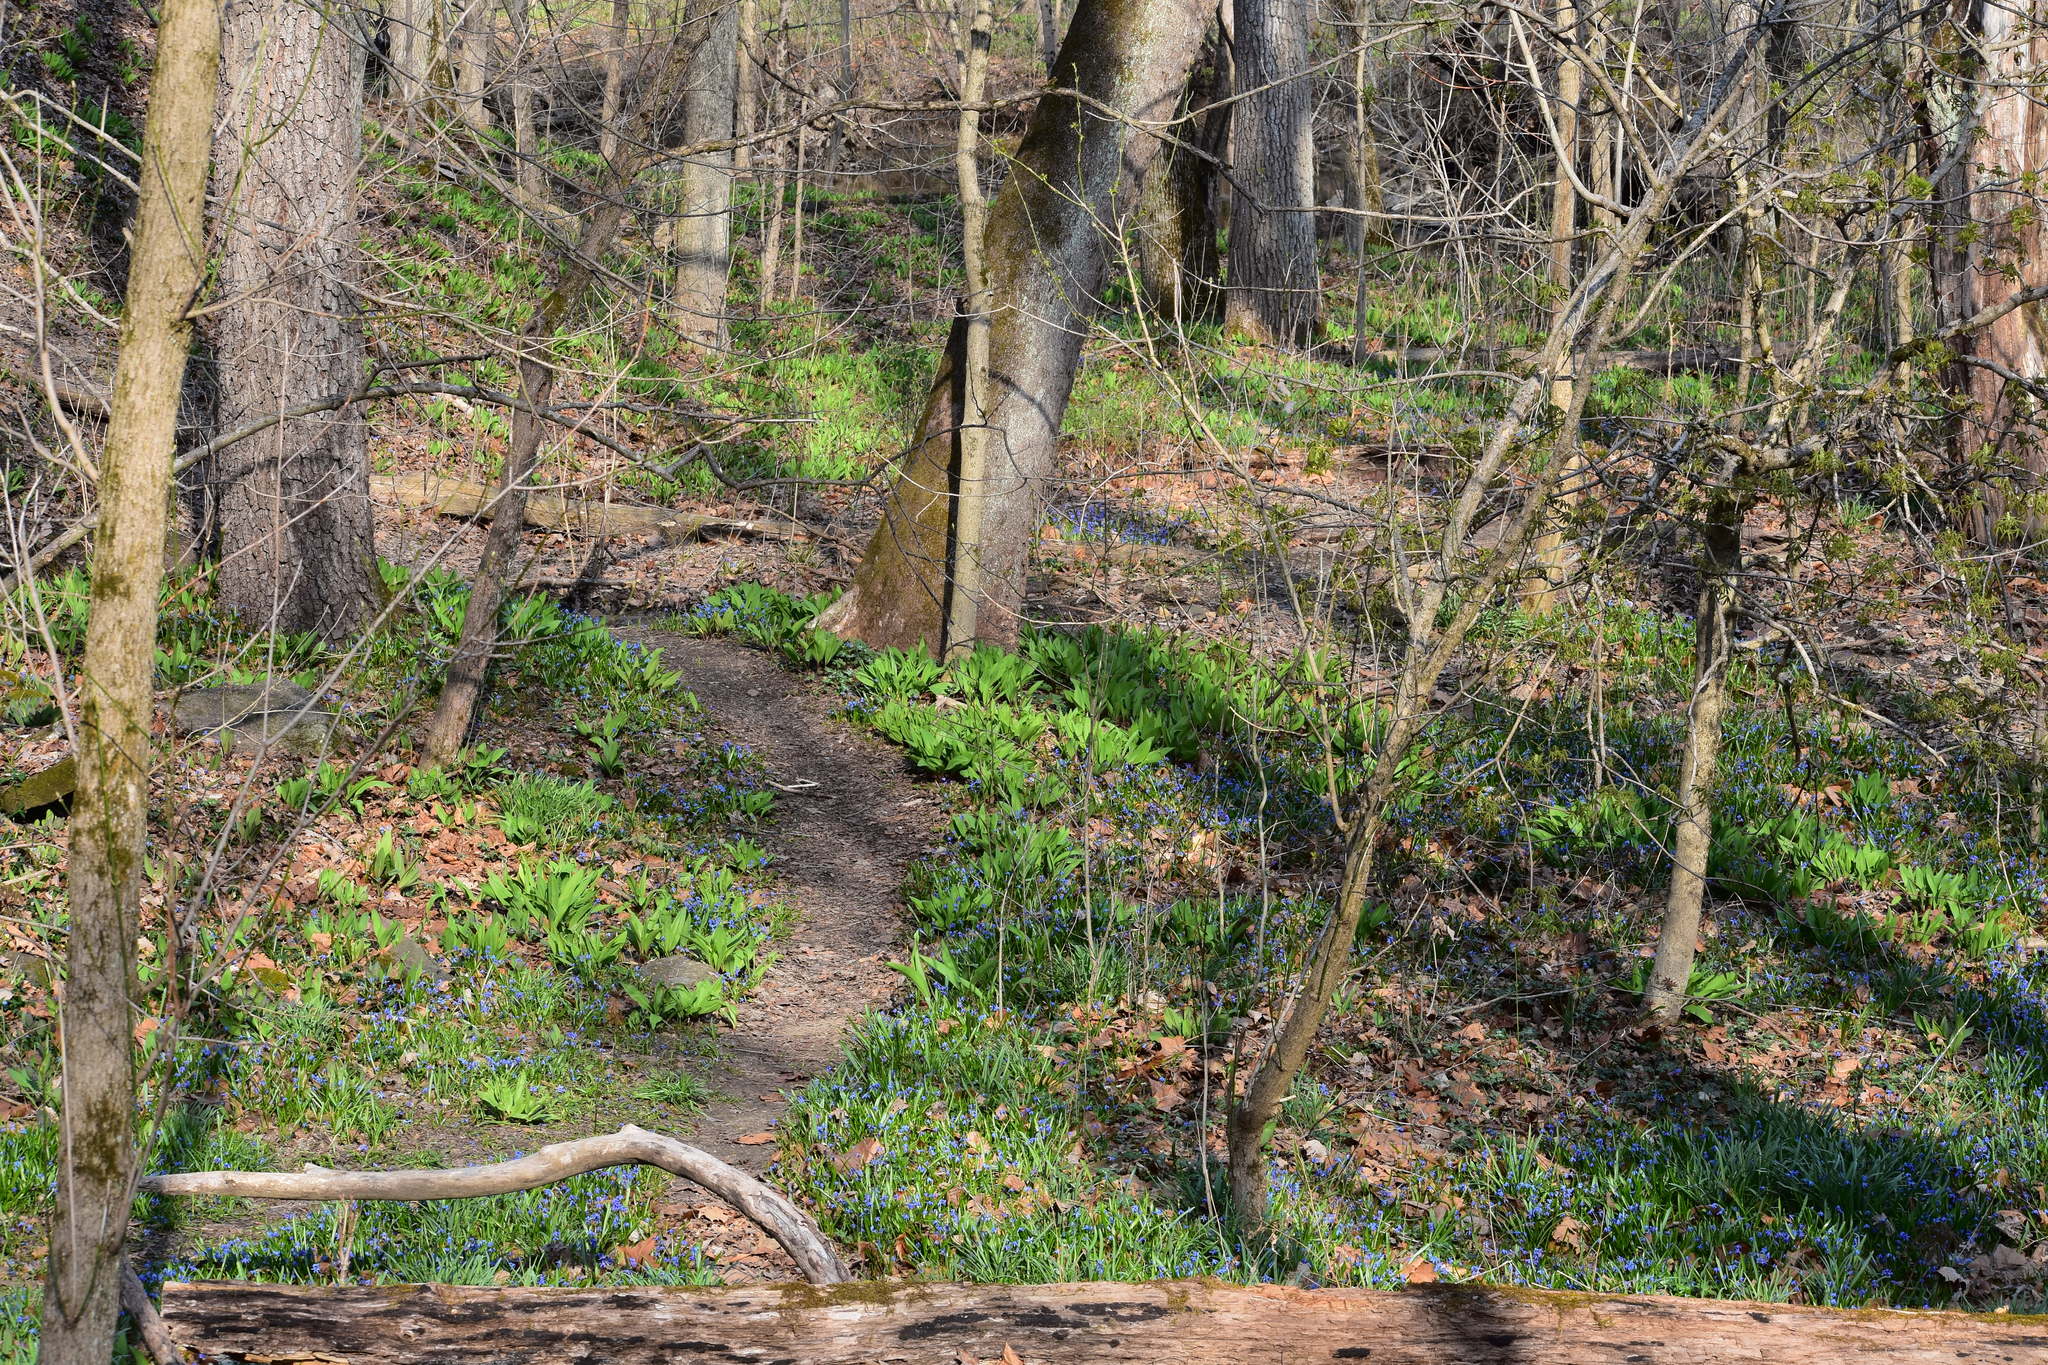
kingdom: Plantae
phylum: Tracheophyta
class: Liliopsida
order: Asparagales
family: Asparagaceae
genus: Scilla
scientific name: Scilla siberica
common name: Siberian squill
